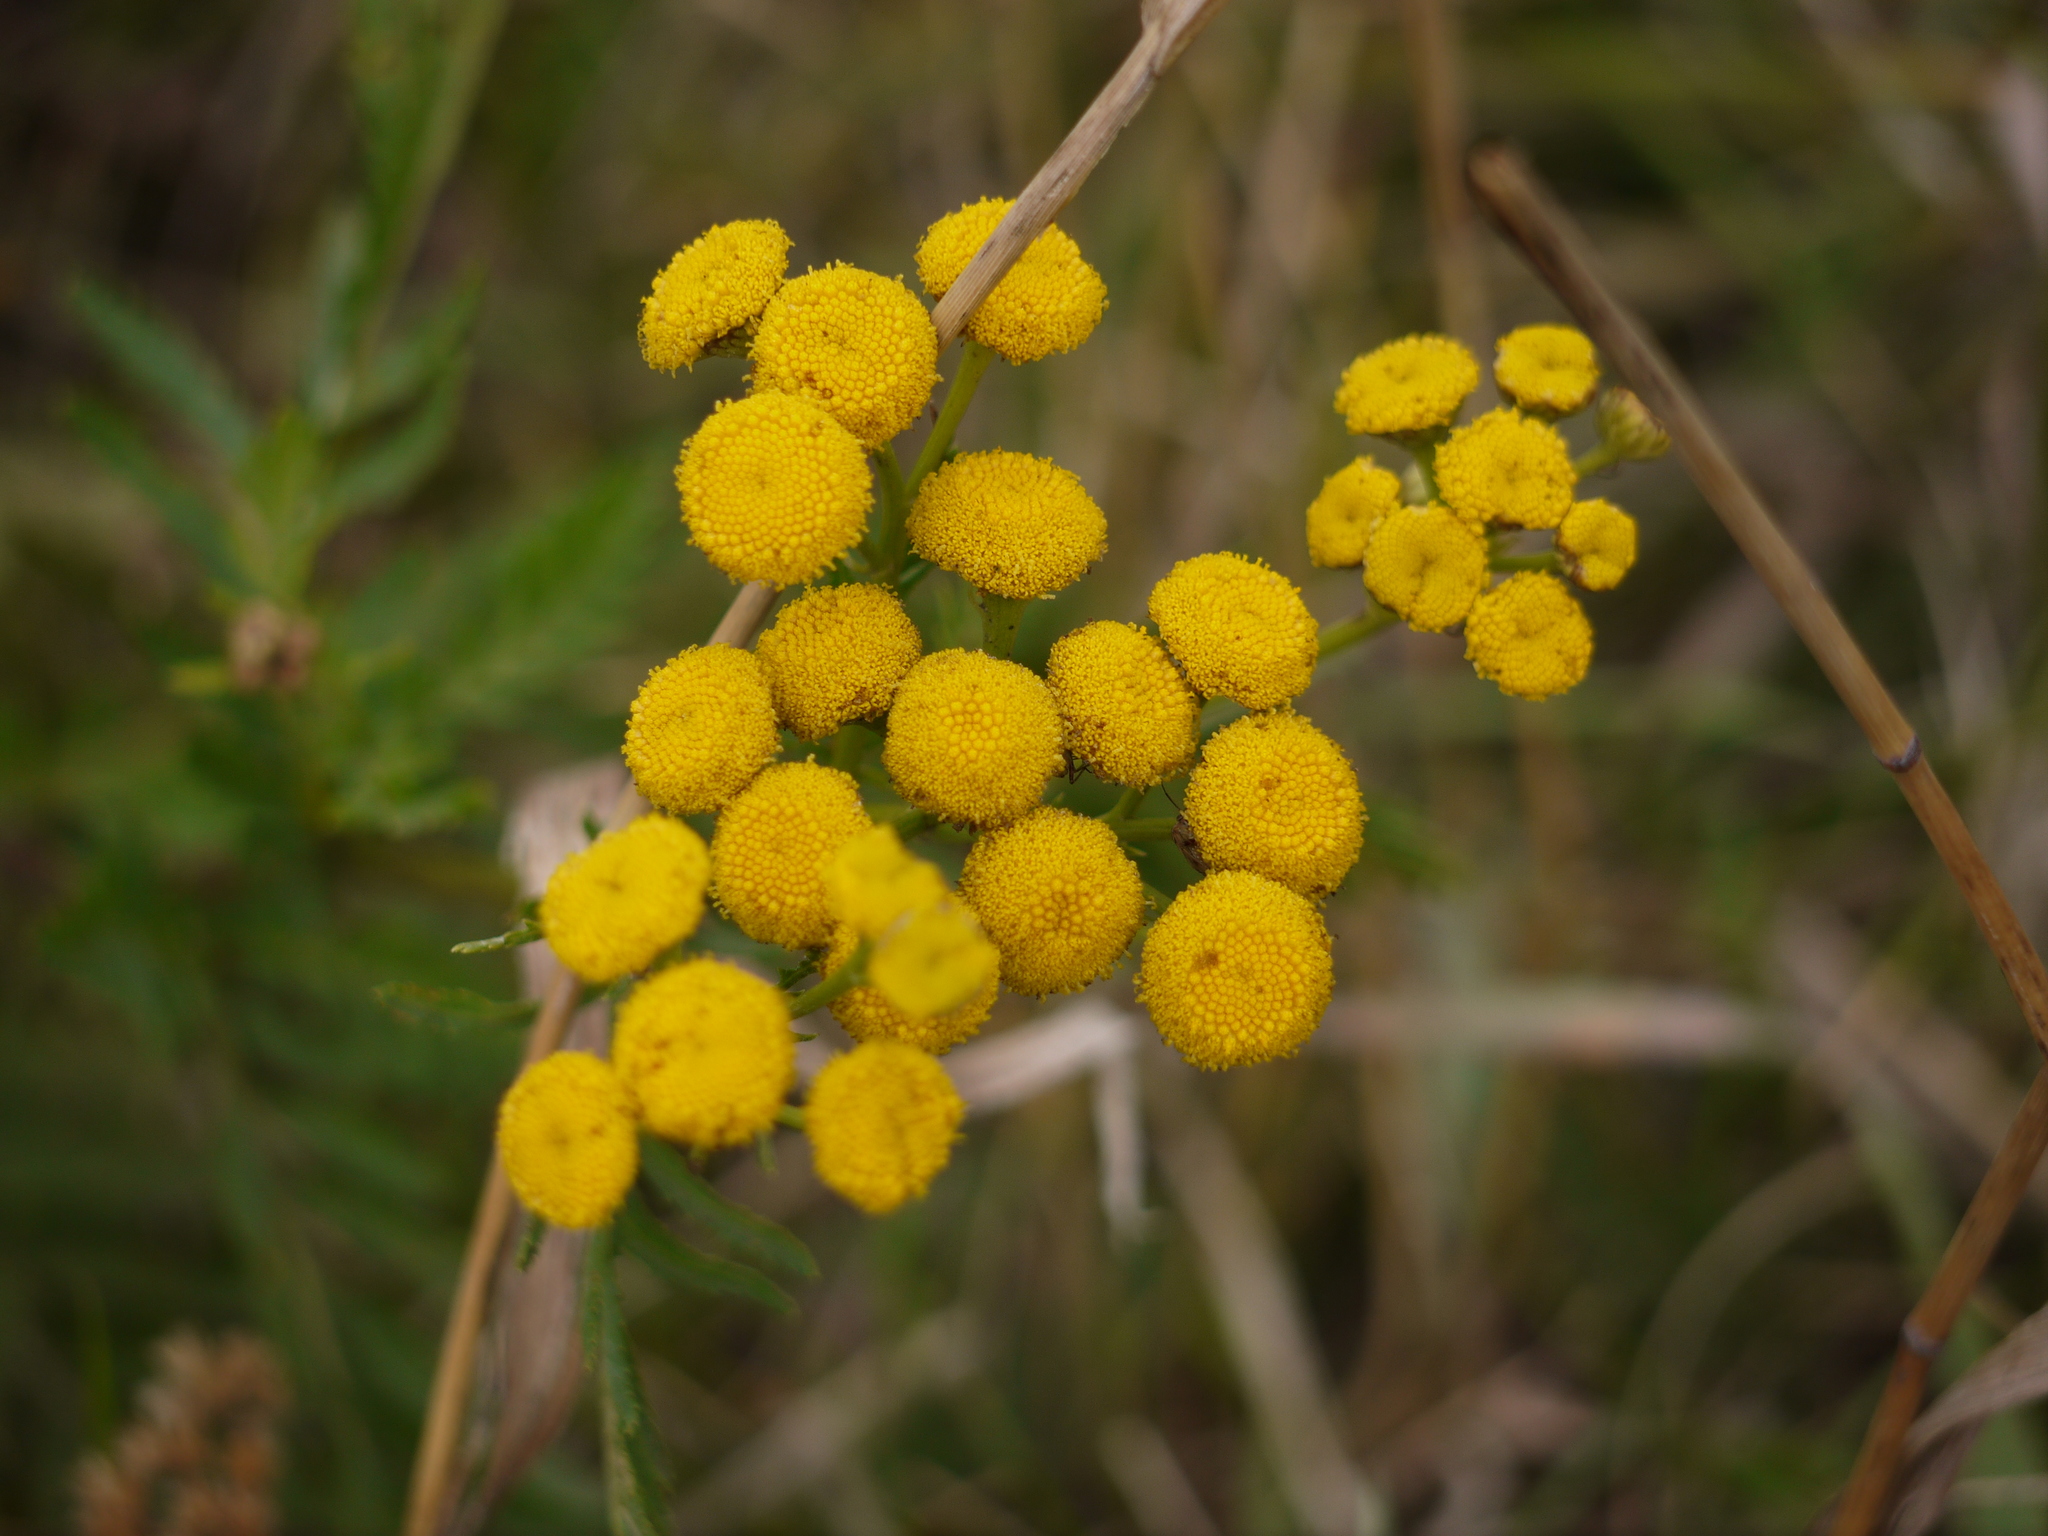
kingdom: Plantae
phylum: Tracheophyta
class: Magnoliopsida
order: Asterales
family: Asteraceae
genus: Tanacetum
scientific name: Tanacetum vulgare
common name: Common tansy
